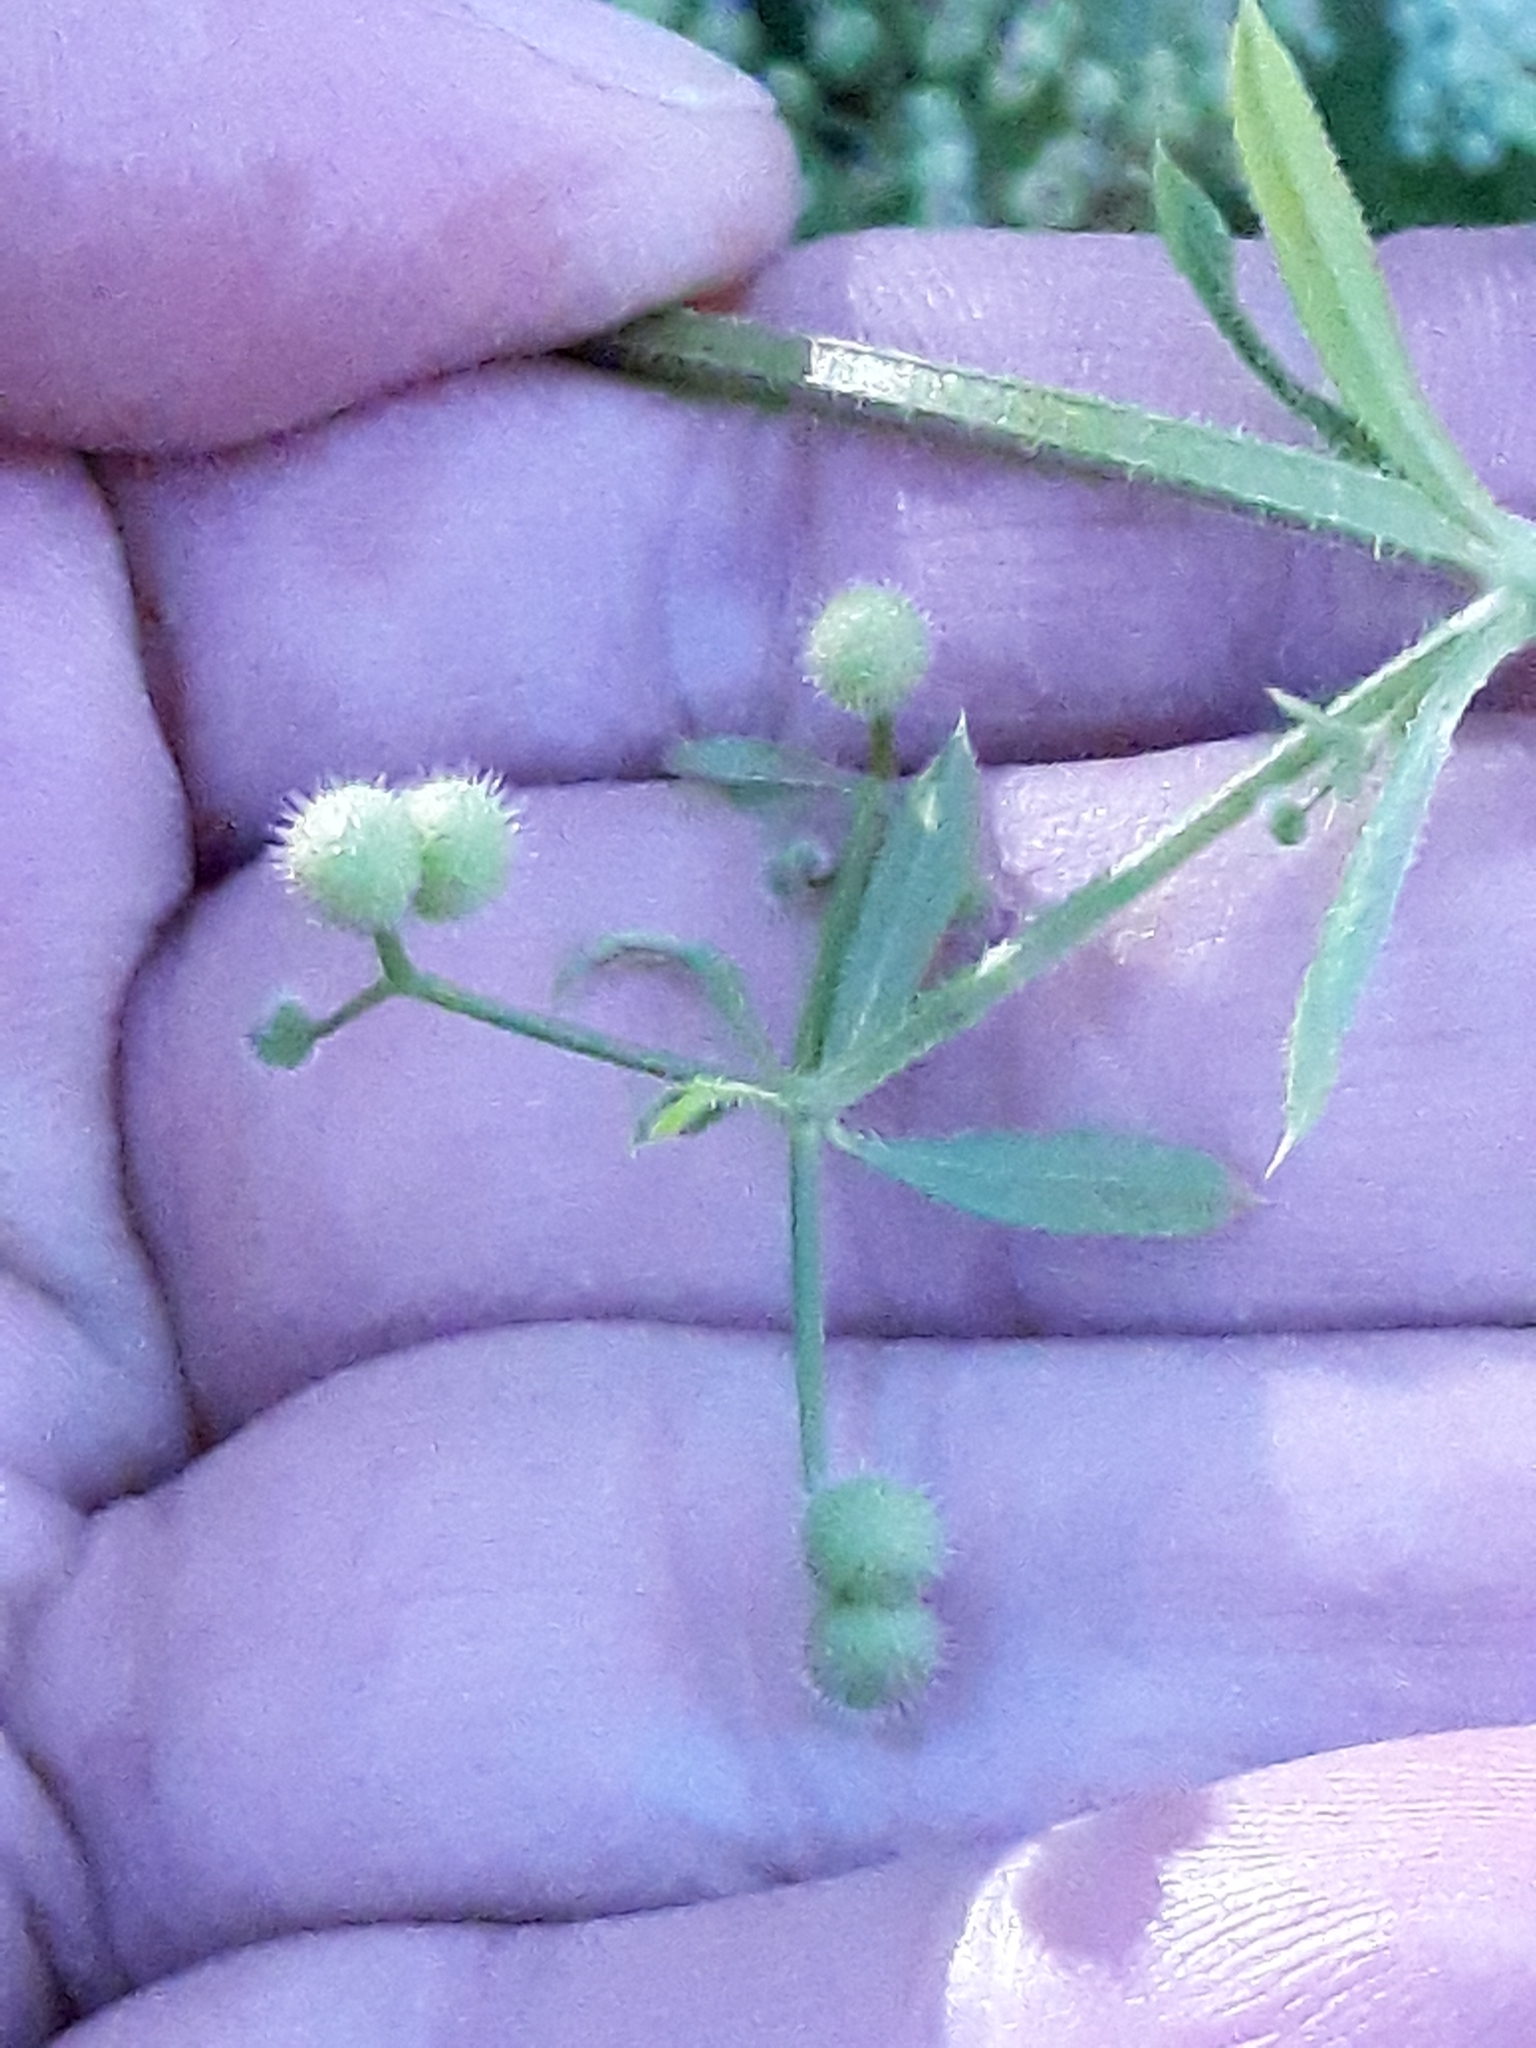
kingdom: Plantae
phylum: Tracheophyta
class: Magnoliopsida
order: Gentianales
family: Rubiaceae
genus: Galium
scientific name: Galium aparine
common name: Cleavers
